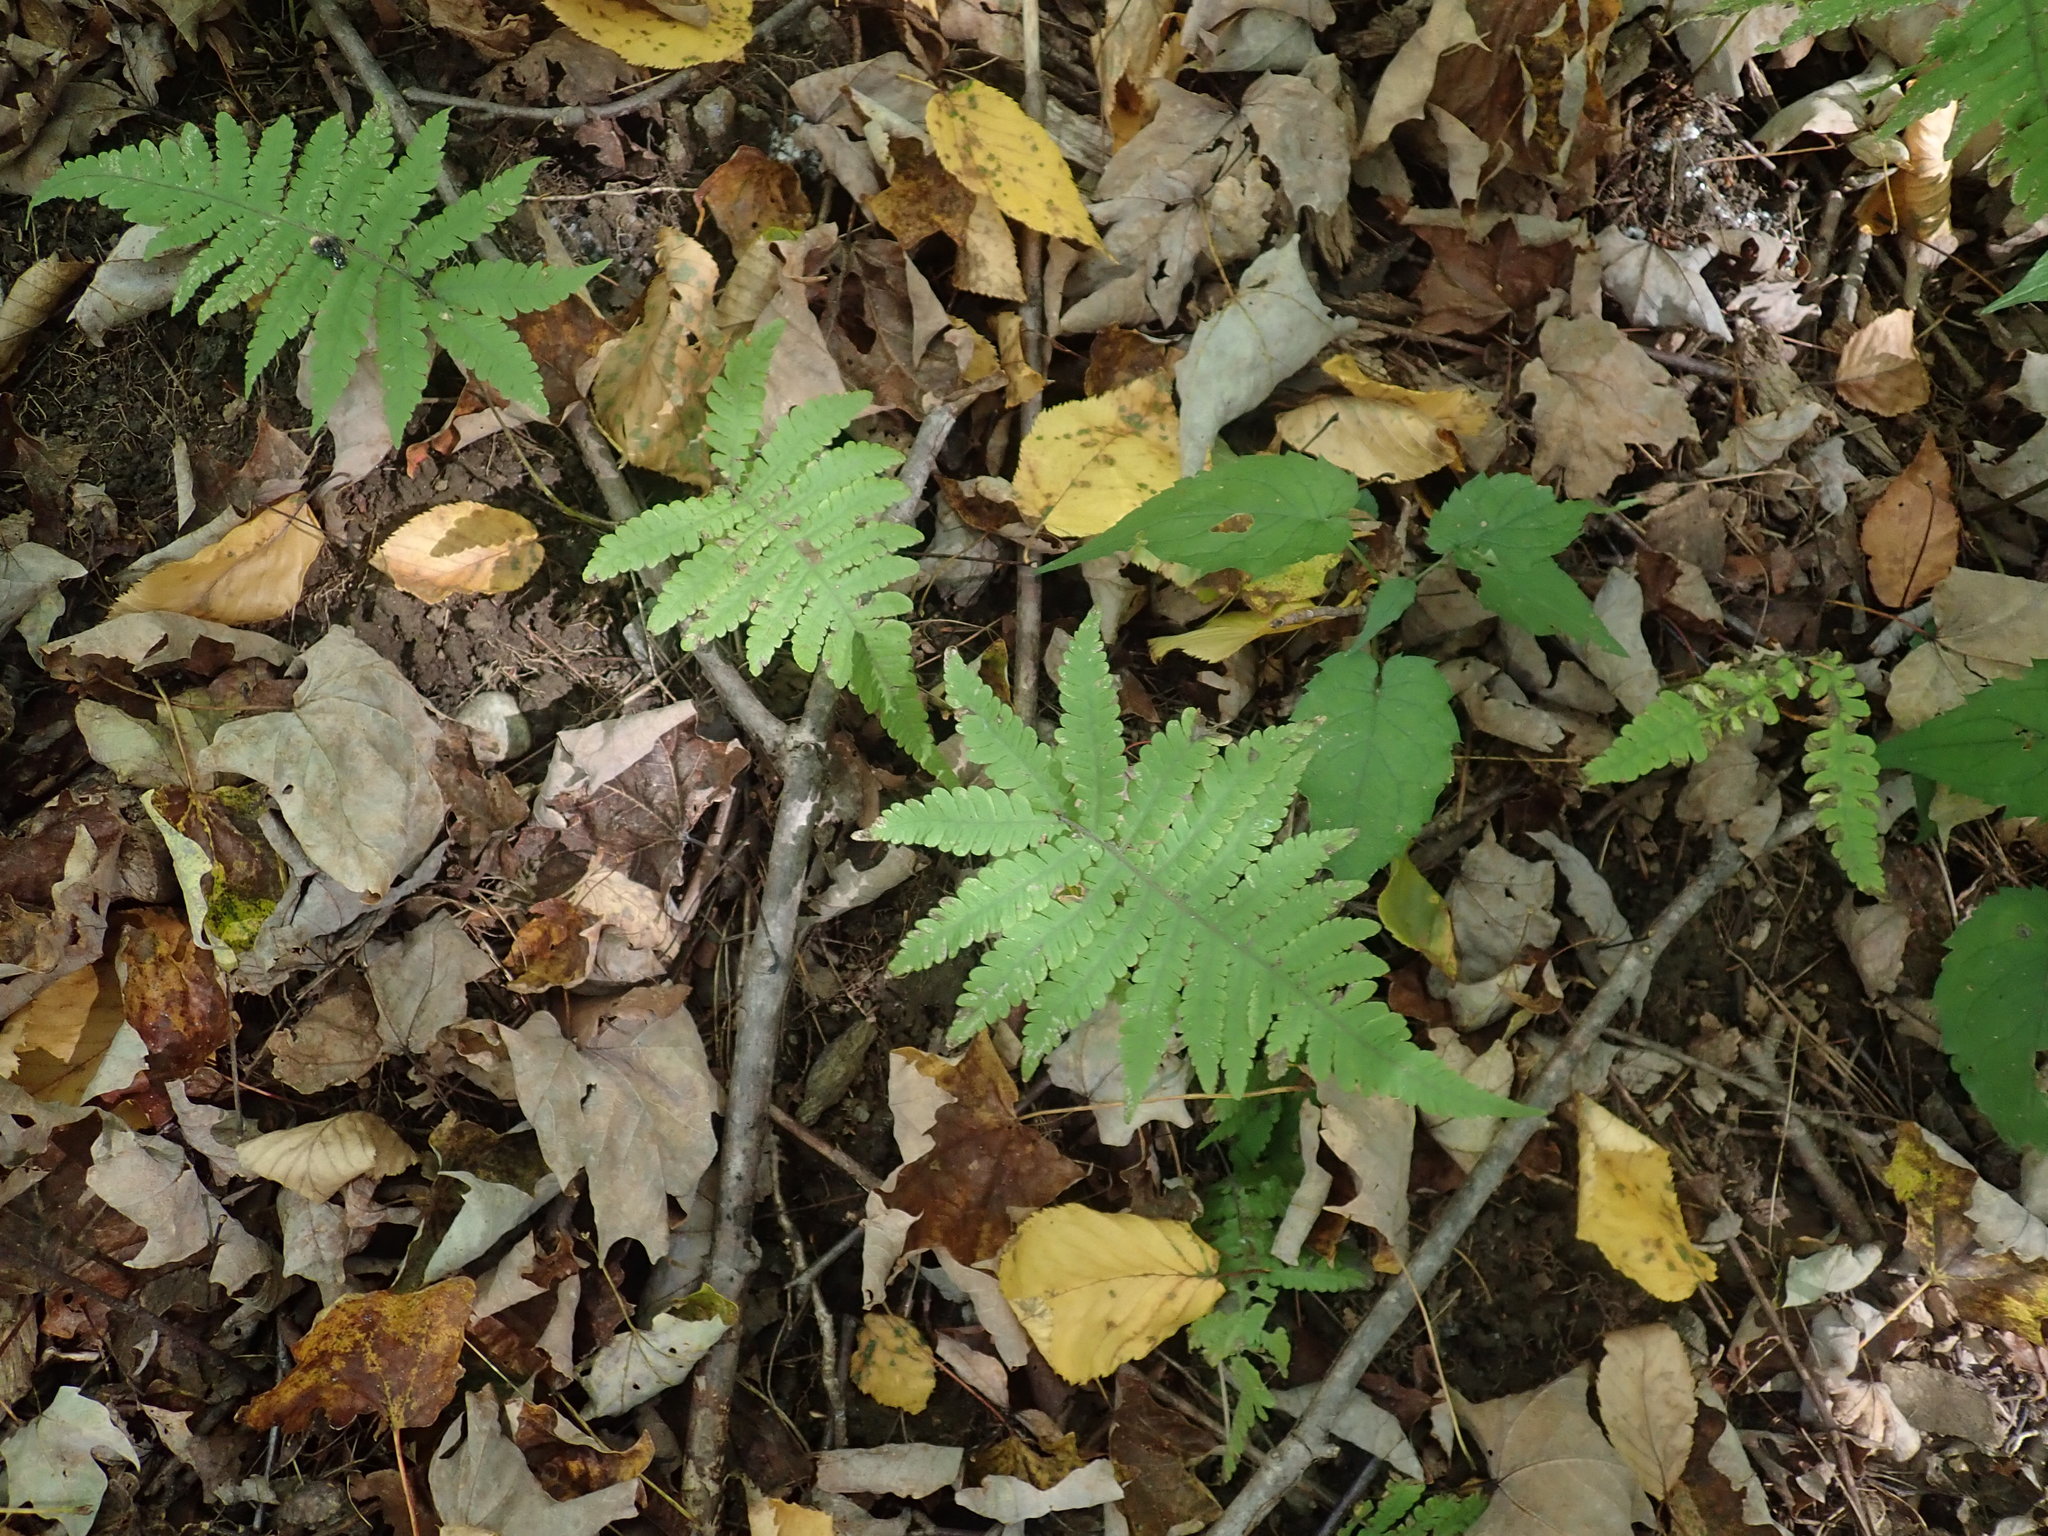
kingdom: Plantae
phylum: Tracheophyta
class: Polypodiopsida
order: Polypodiales
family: Thelypteridaceae
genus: Phegopteris
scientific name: Phegopteris connectilis
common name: Beech fern
